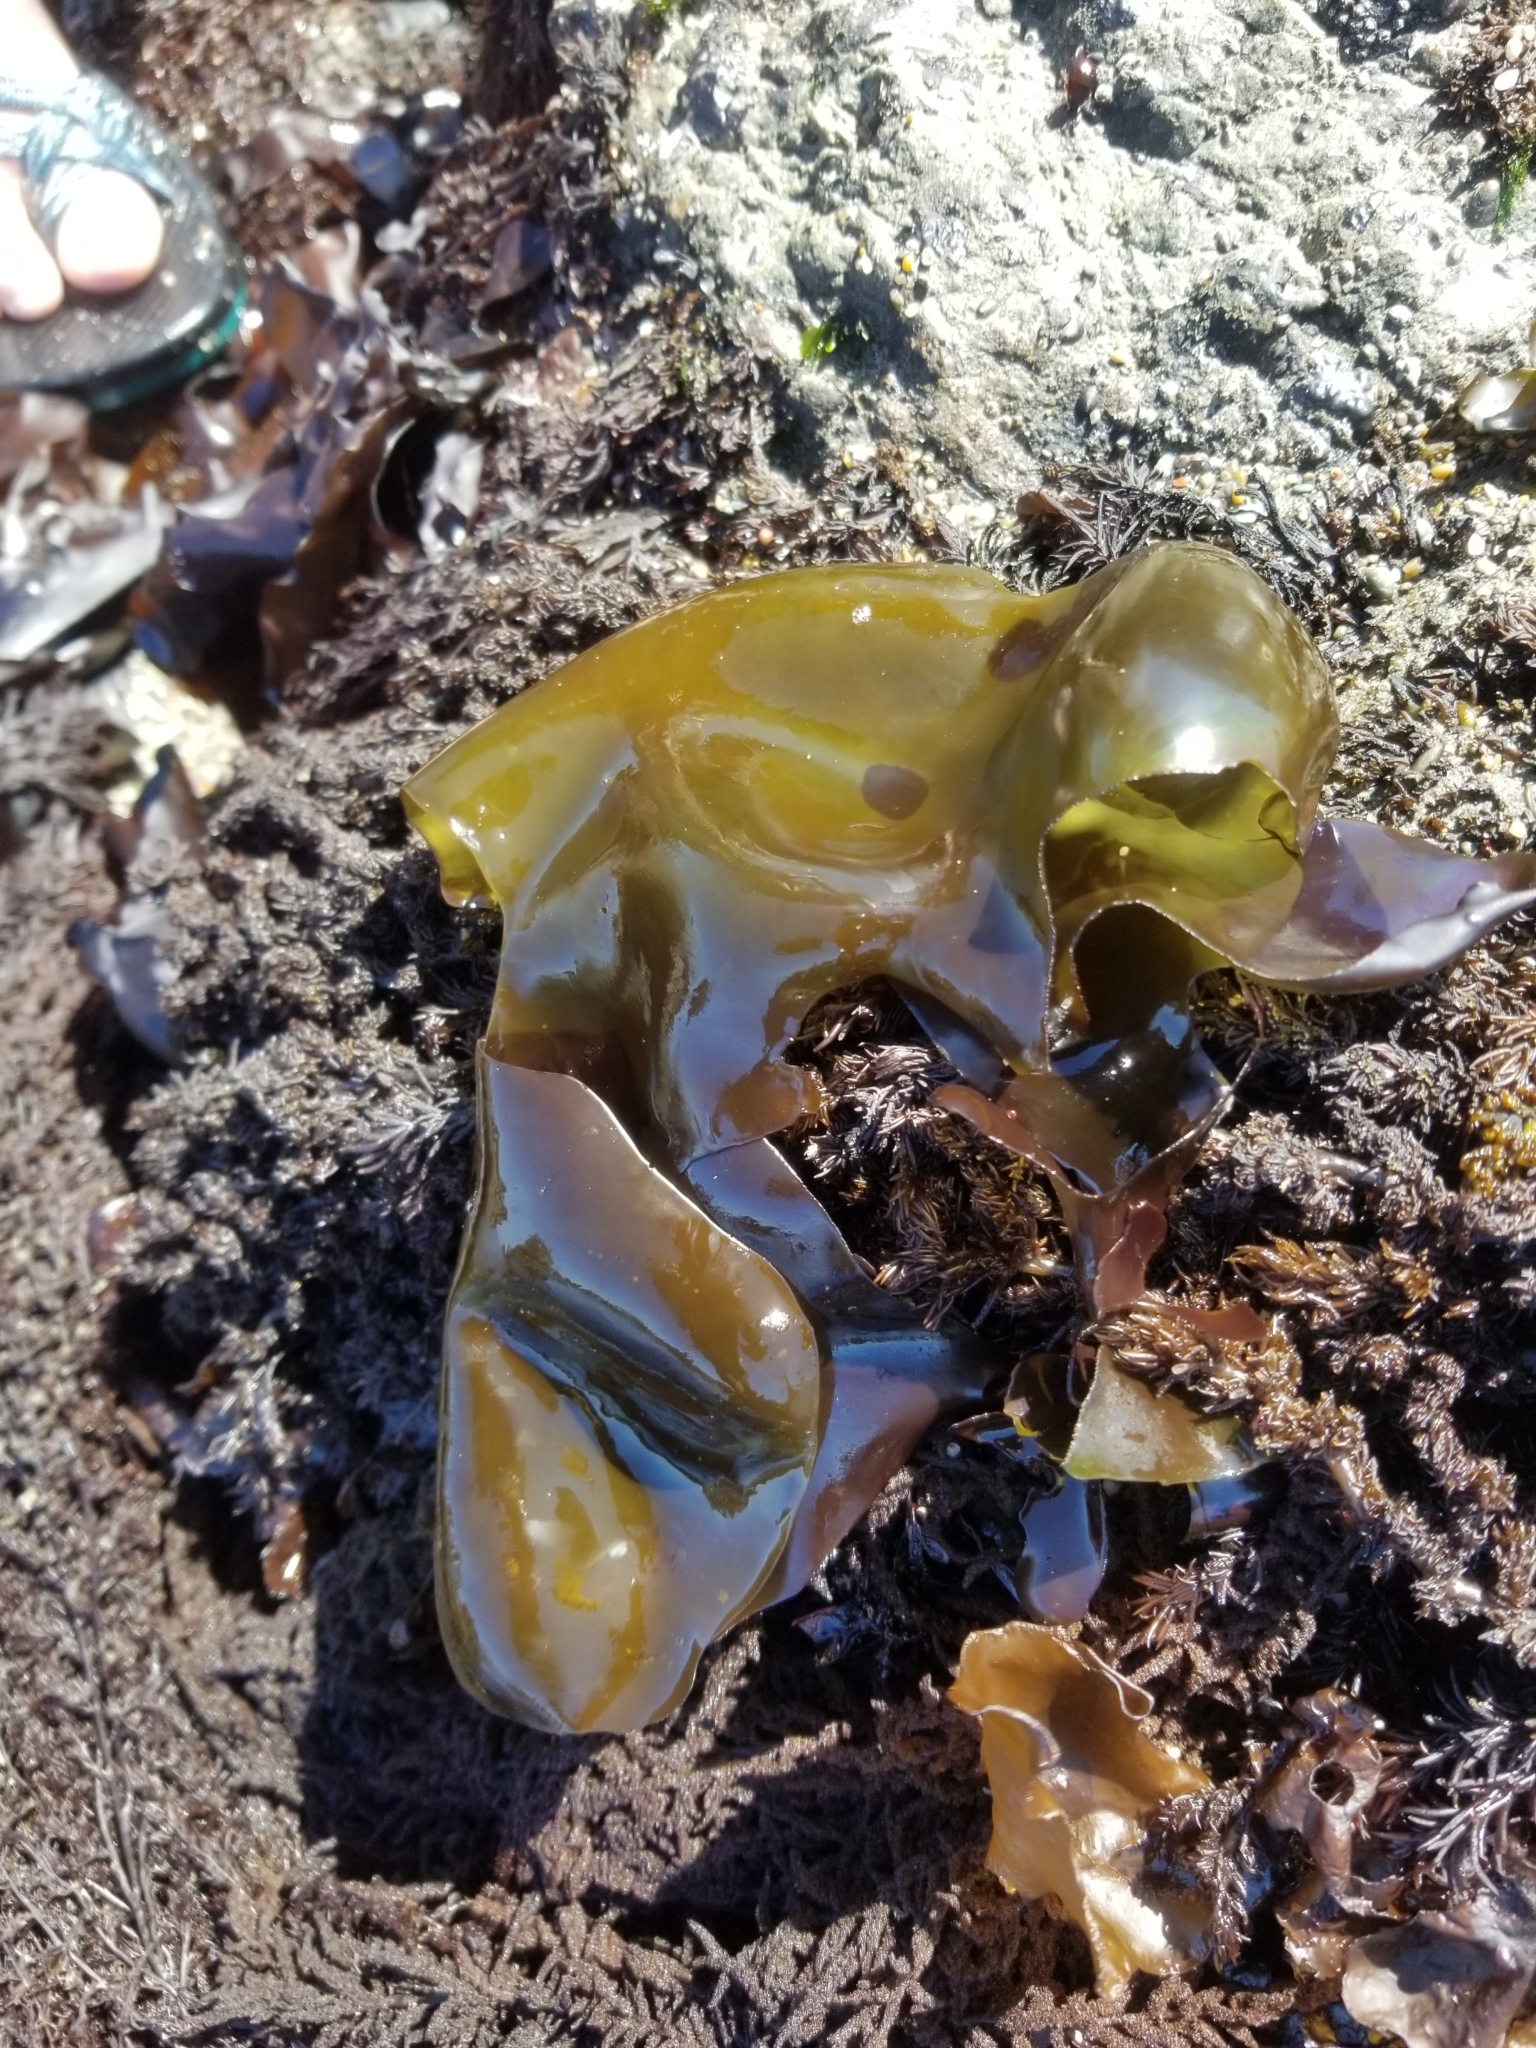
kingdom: Plantae
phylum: Rhodophyta
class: Florideophyceae
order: Gigartinales
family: Gigartinaceae
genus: Mazzaella
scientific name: Mazzaella flaccida
